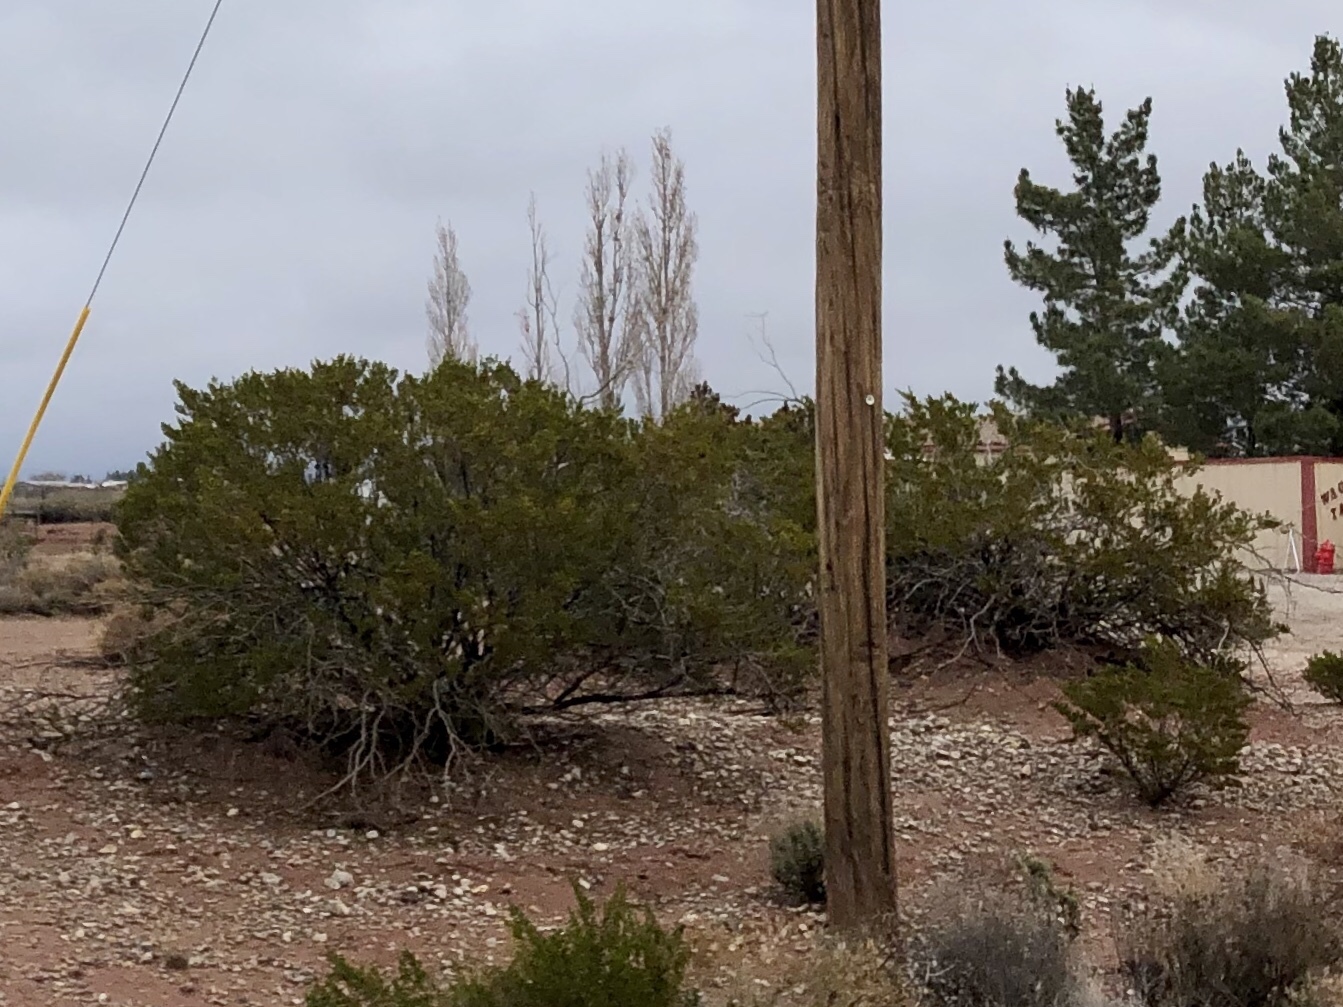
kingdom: Plantae
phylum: Tracheophyta
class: Magnoliopsida
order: Zygophyllales
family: Zygophyllaceae
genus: Larrea
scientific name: Larrea tridentata
